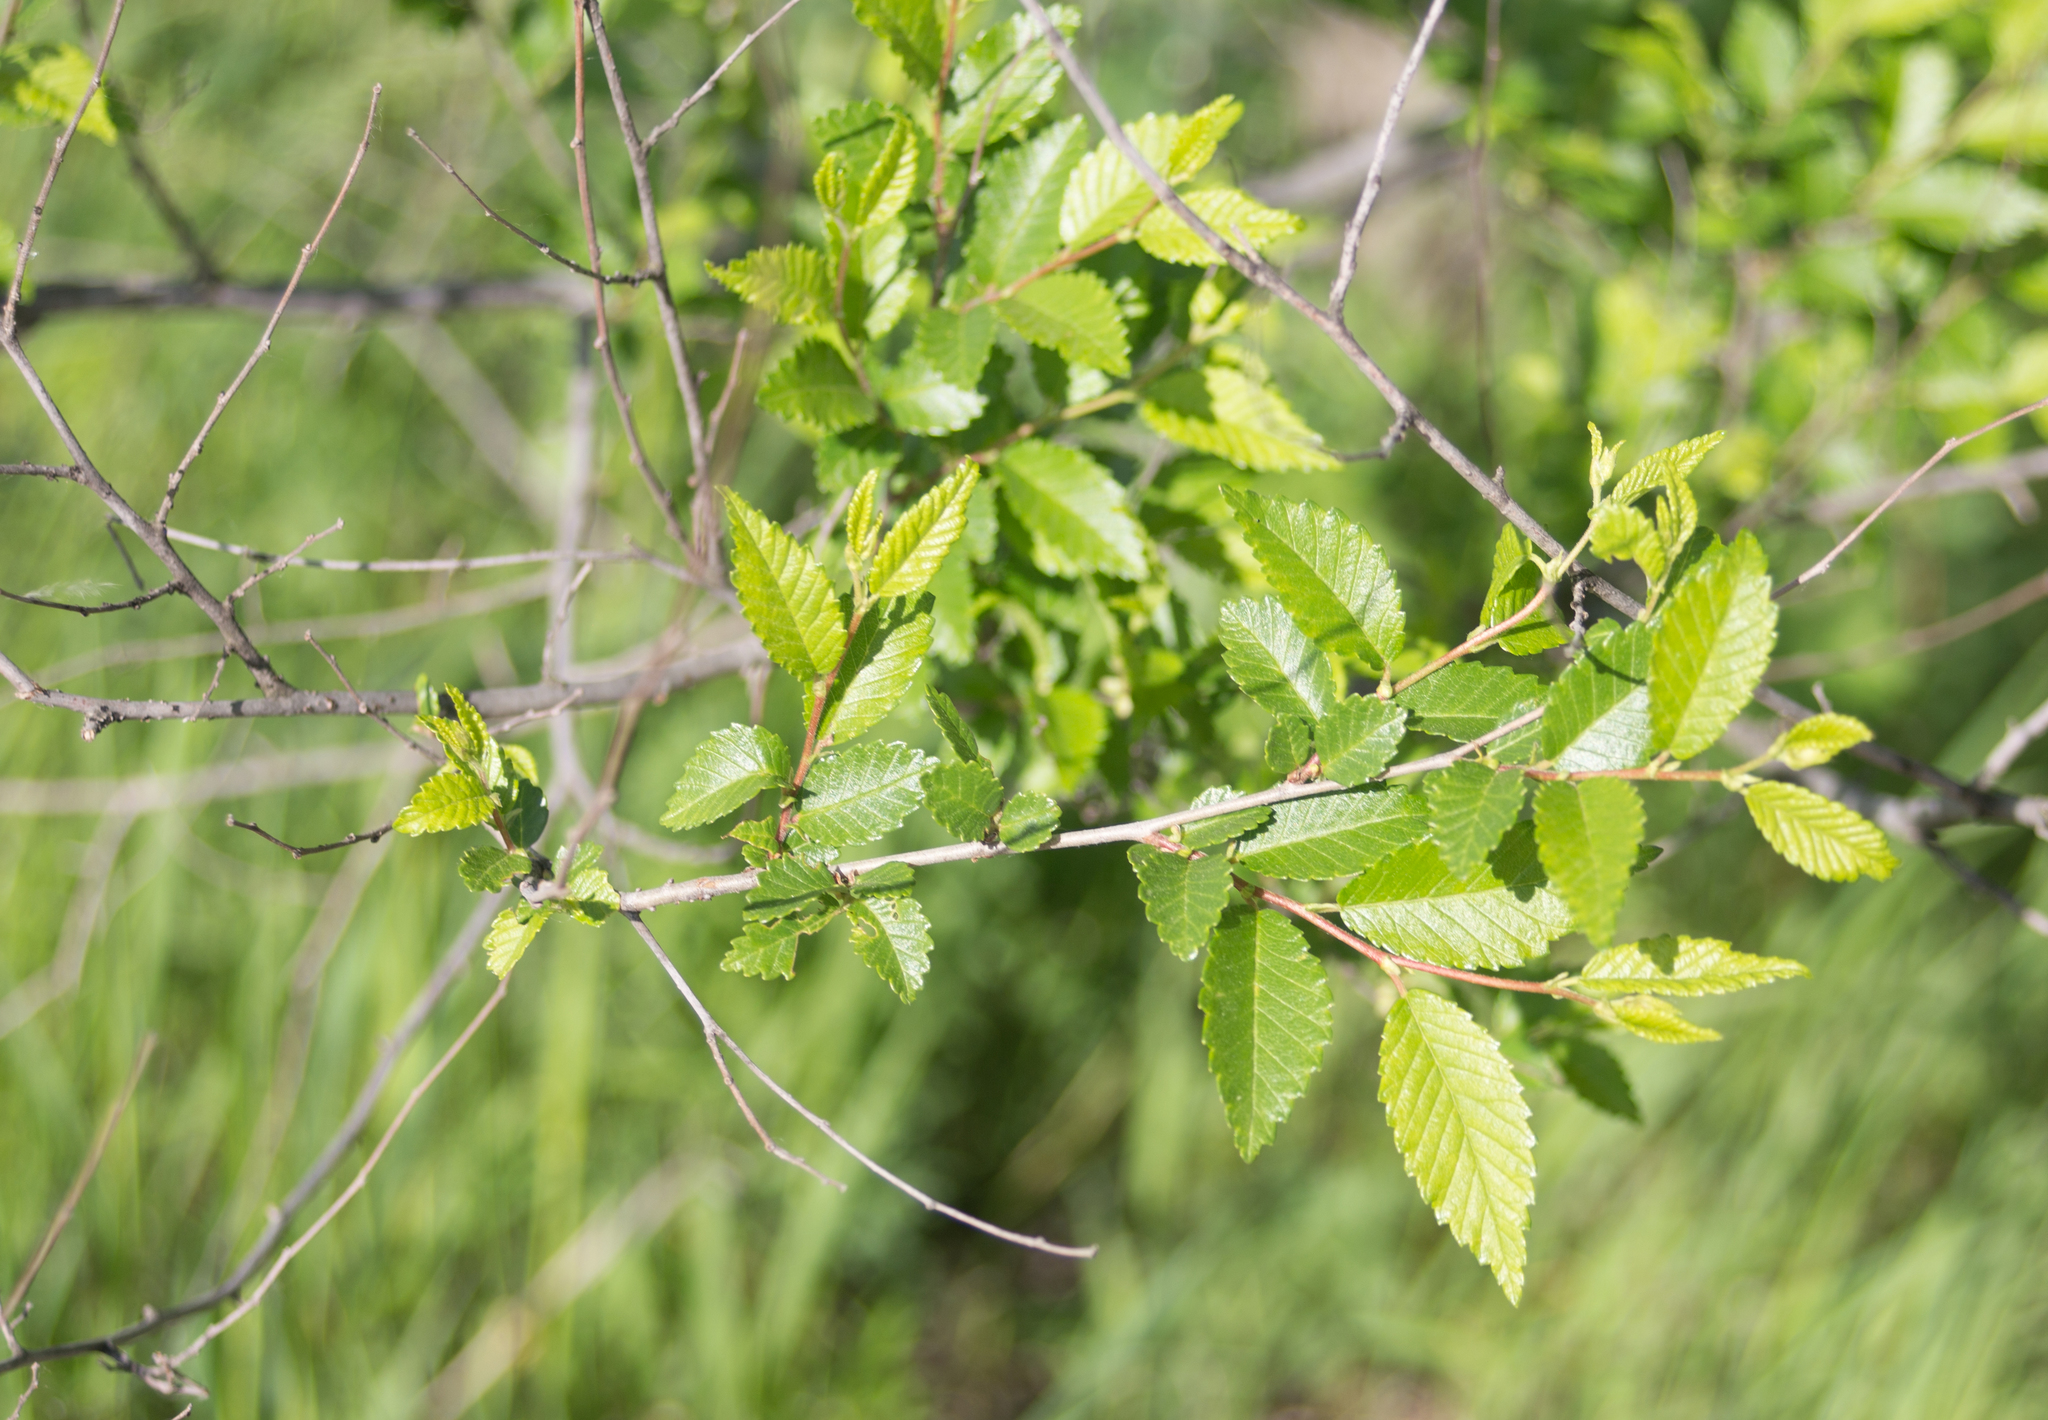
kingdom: Plantae
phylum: Tracheophyta
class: Magnoliopsida
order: Rosales
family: Ulmaceae
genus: Ulmus
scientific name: Ulmus pumila
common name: Siberian elm
